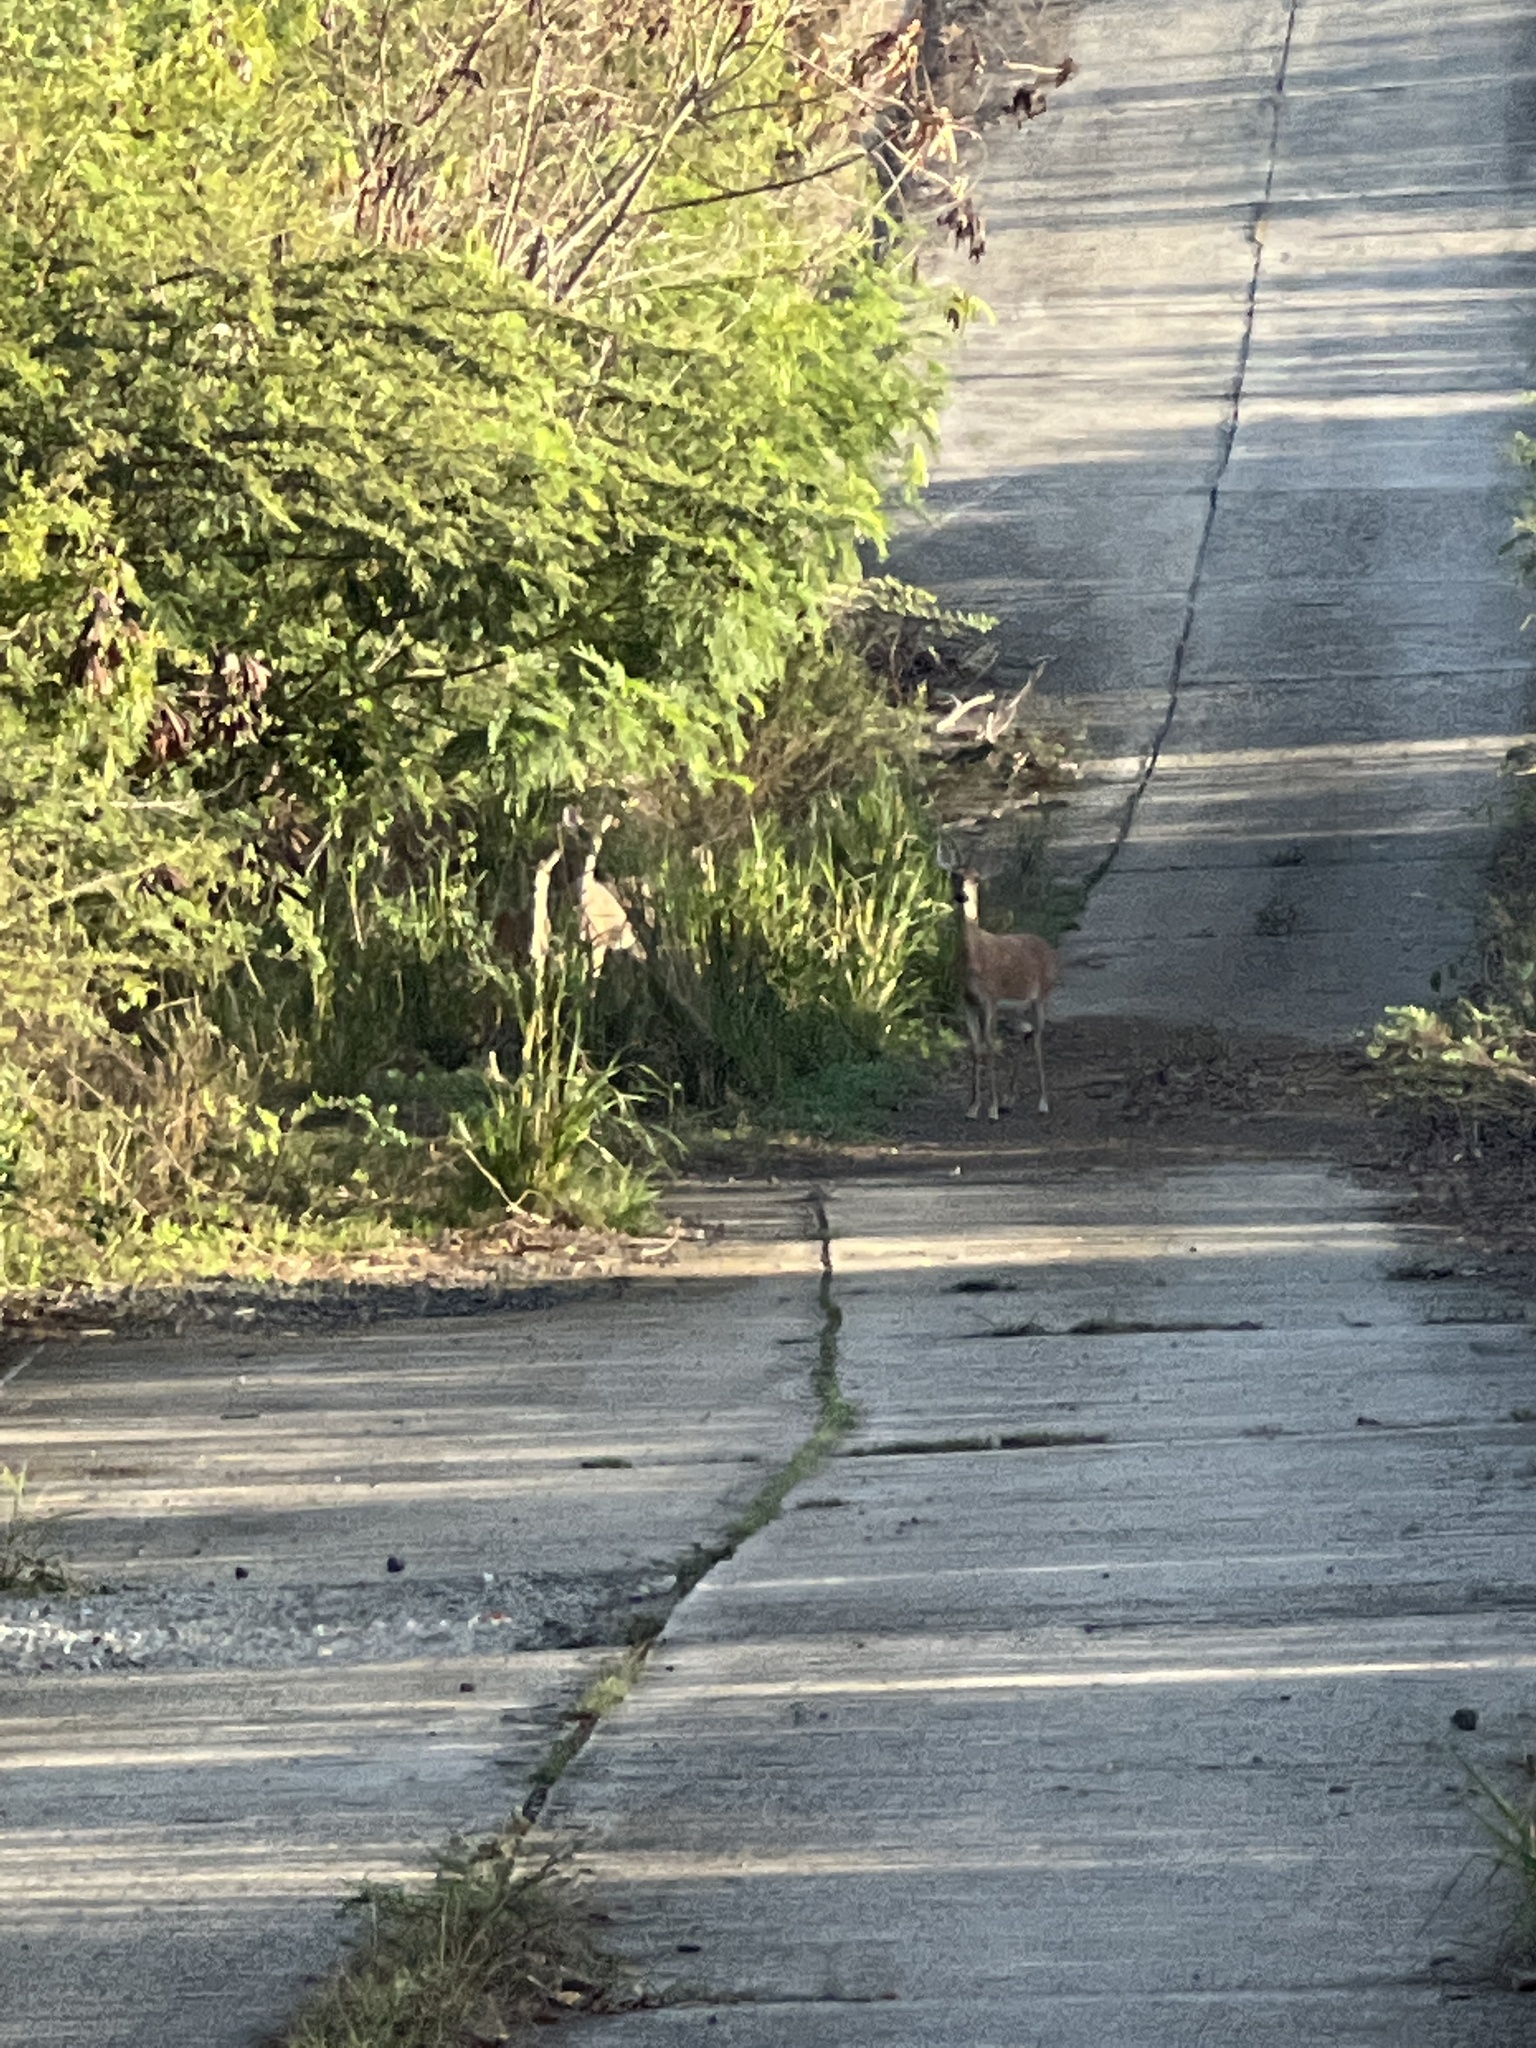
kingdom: Animalia
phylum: Chordata
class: Mammalia
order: Artiodactyla
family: Cervidae
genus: Odocoileus
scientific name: Odocoileus virginianus
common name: White-tailed deer
